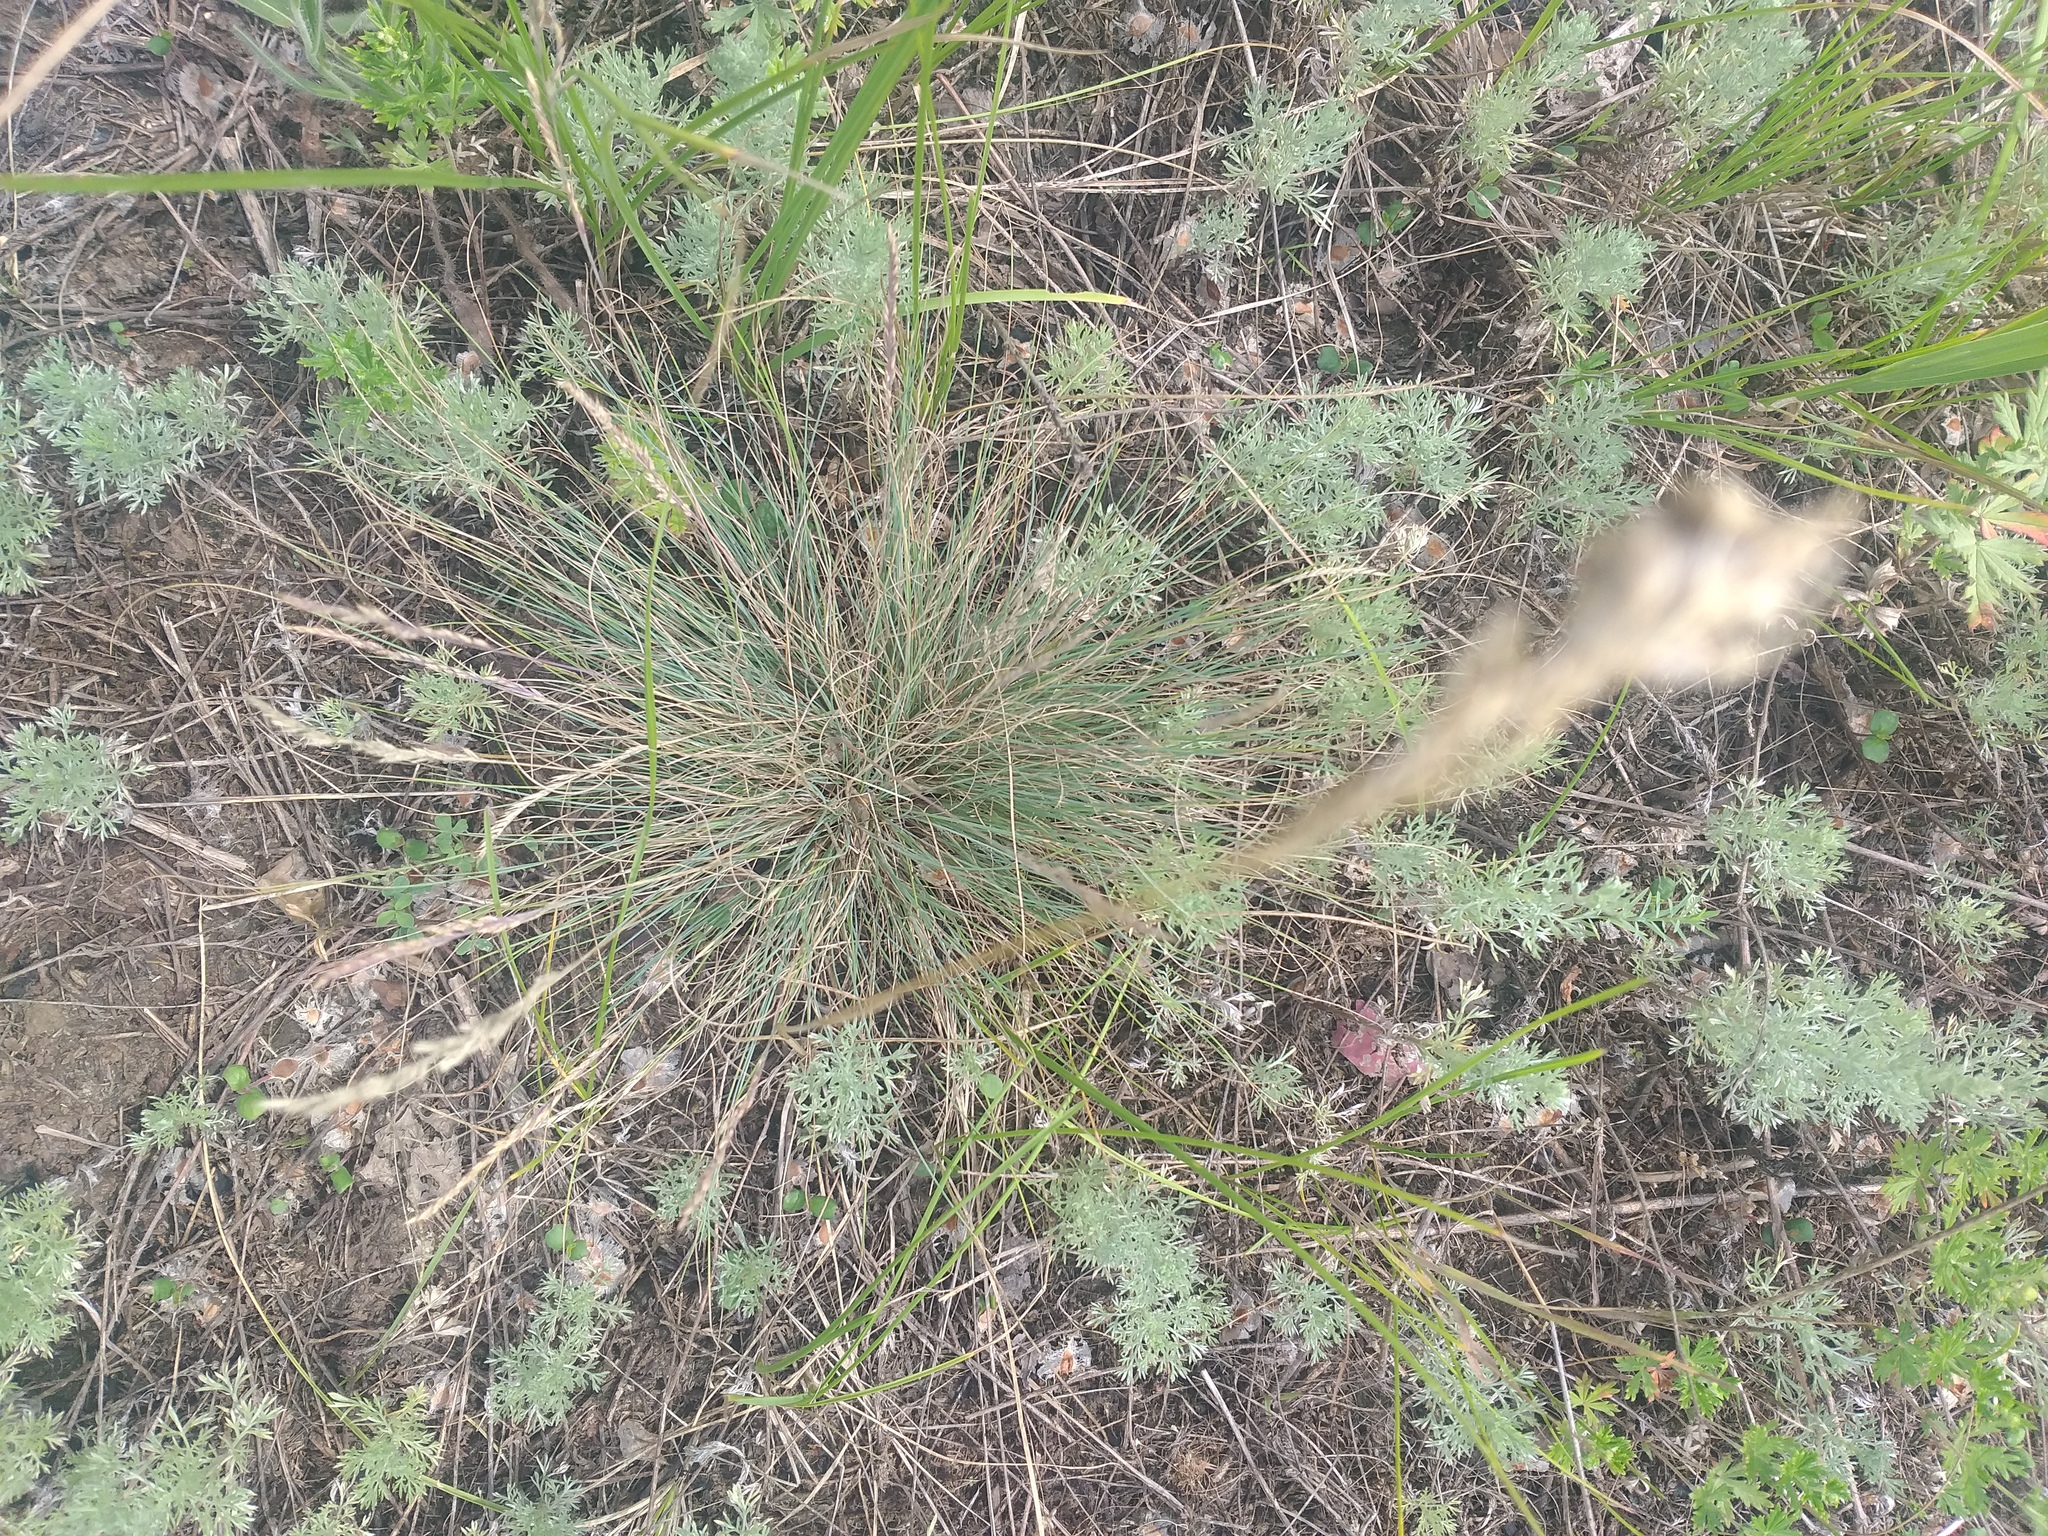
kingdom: Plantae
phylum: Tracheophyta
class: Liliopsida
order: Poales
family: Poaceae
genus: Festuca
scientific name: Festuca valesiaca
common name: Volga fescue
